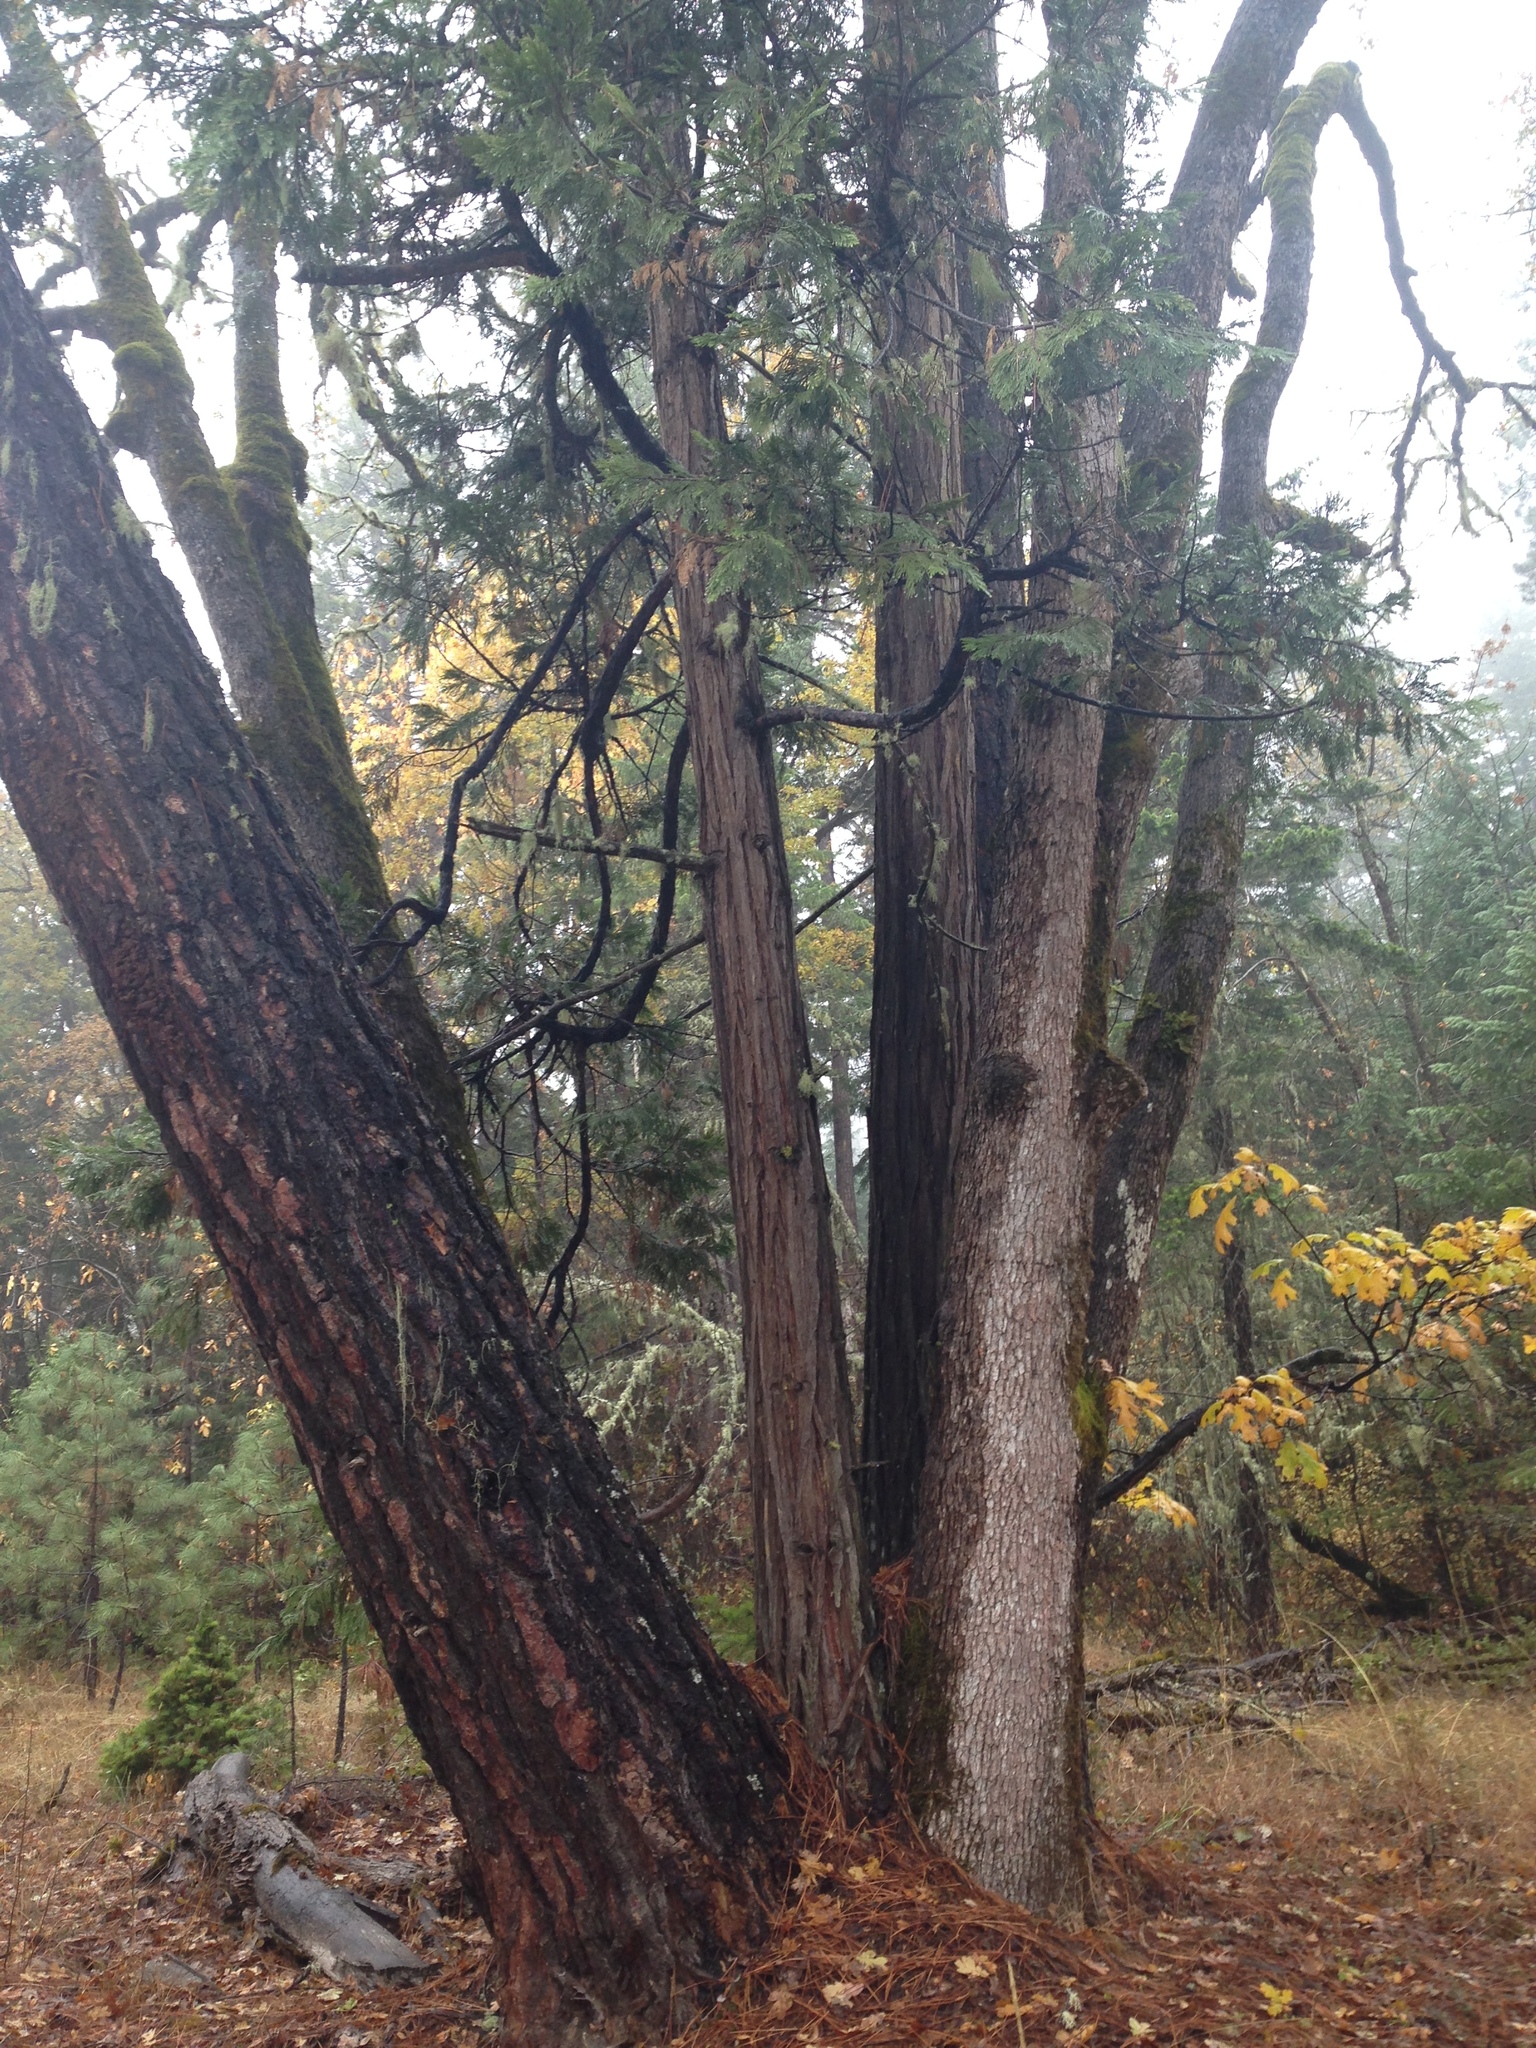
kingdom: Plantae
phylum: Tracheophyta
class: Pinopsida
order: Pinales
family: Cupressaceae
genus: Calocedrus
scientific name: Calocedrus decurrens
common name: Californian incense-cedar
